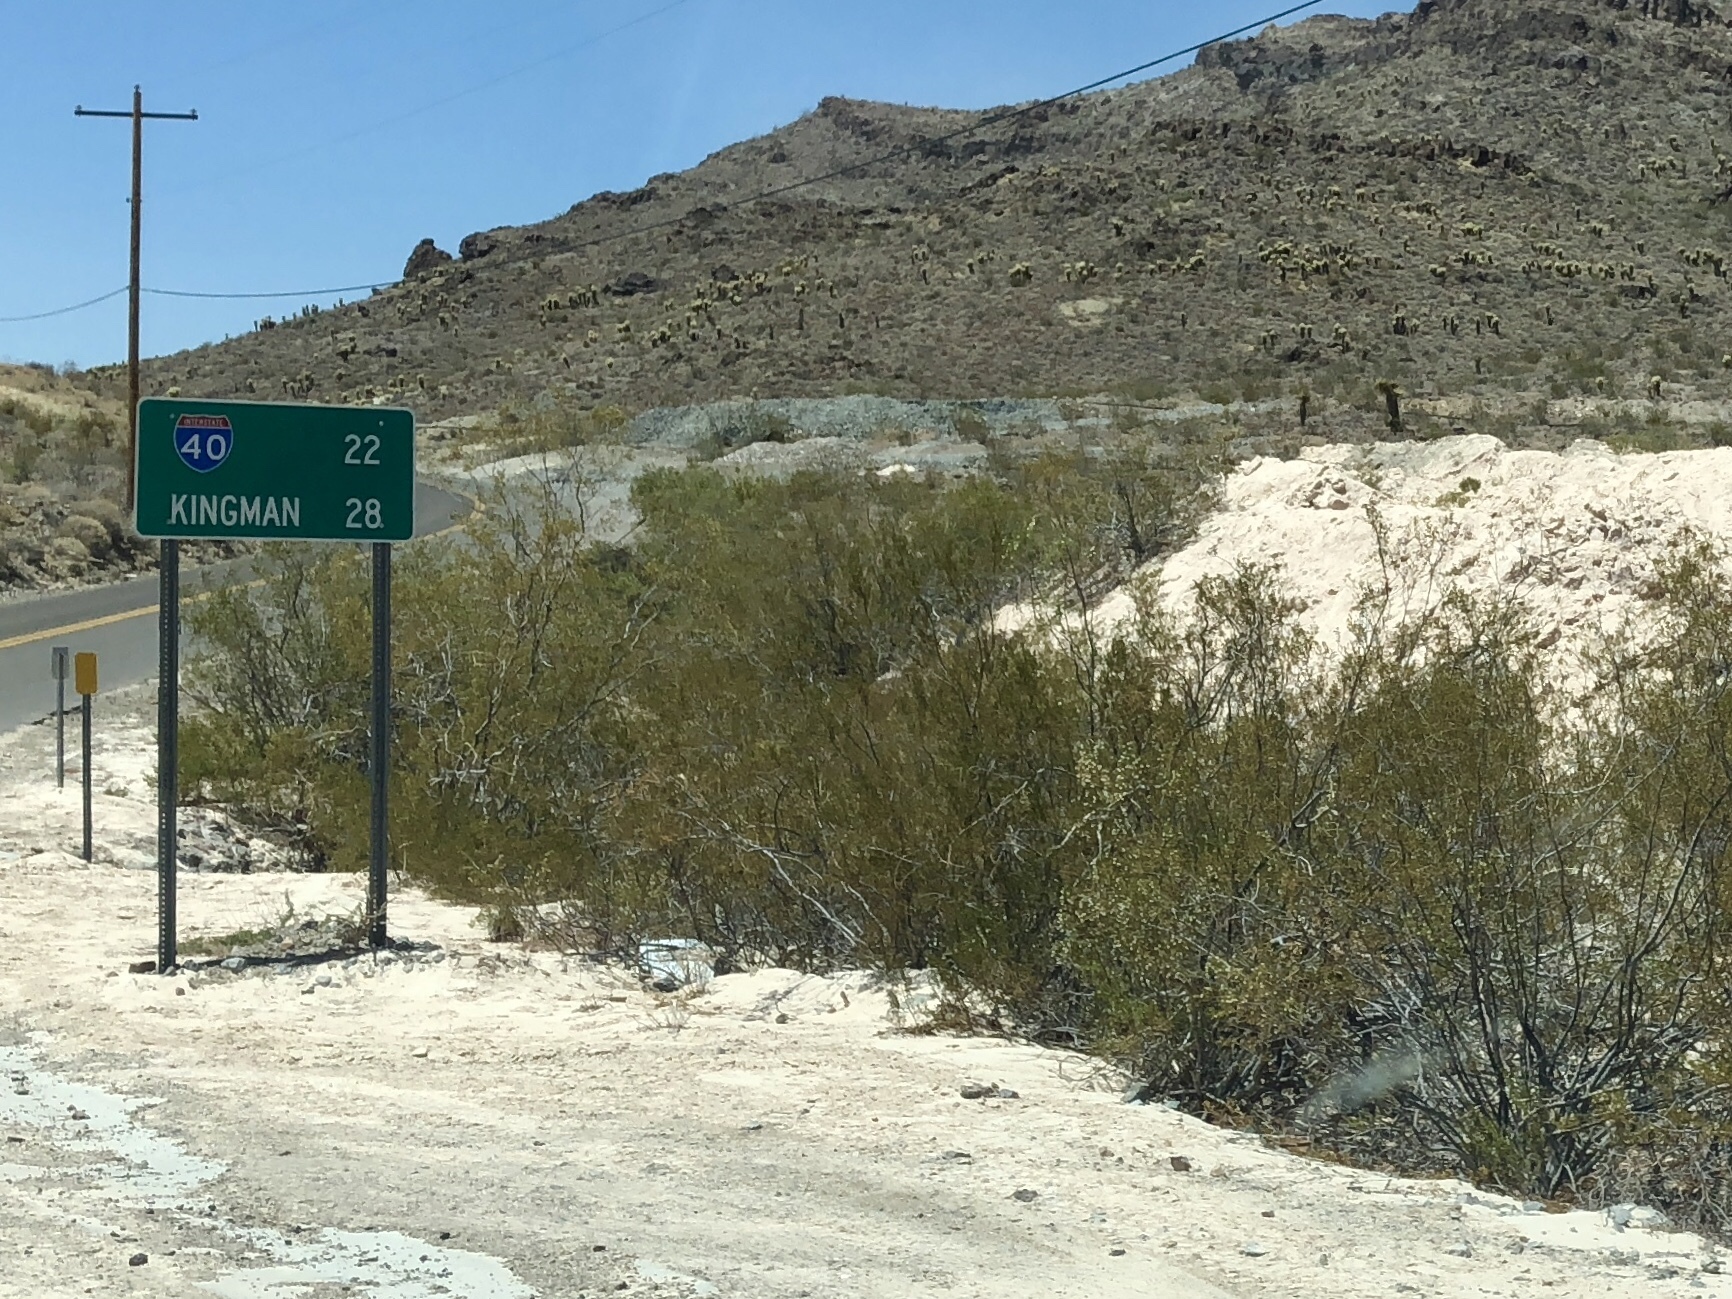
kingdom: Plantae
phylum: Tracheophyta
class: Magnoliopsida
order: Zygophyllales
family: Zygophyllaceae
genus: Larrea
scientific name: Larrea tridentata
